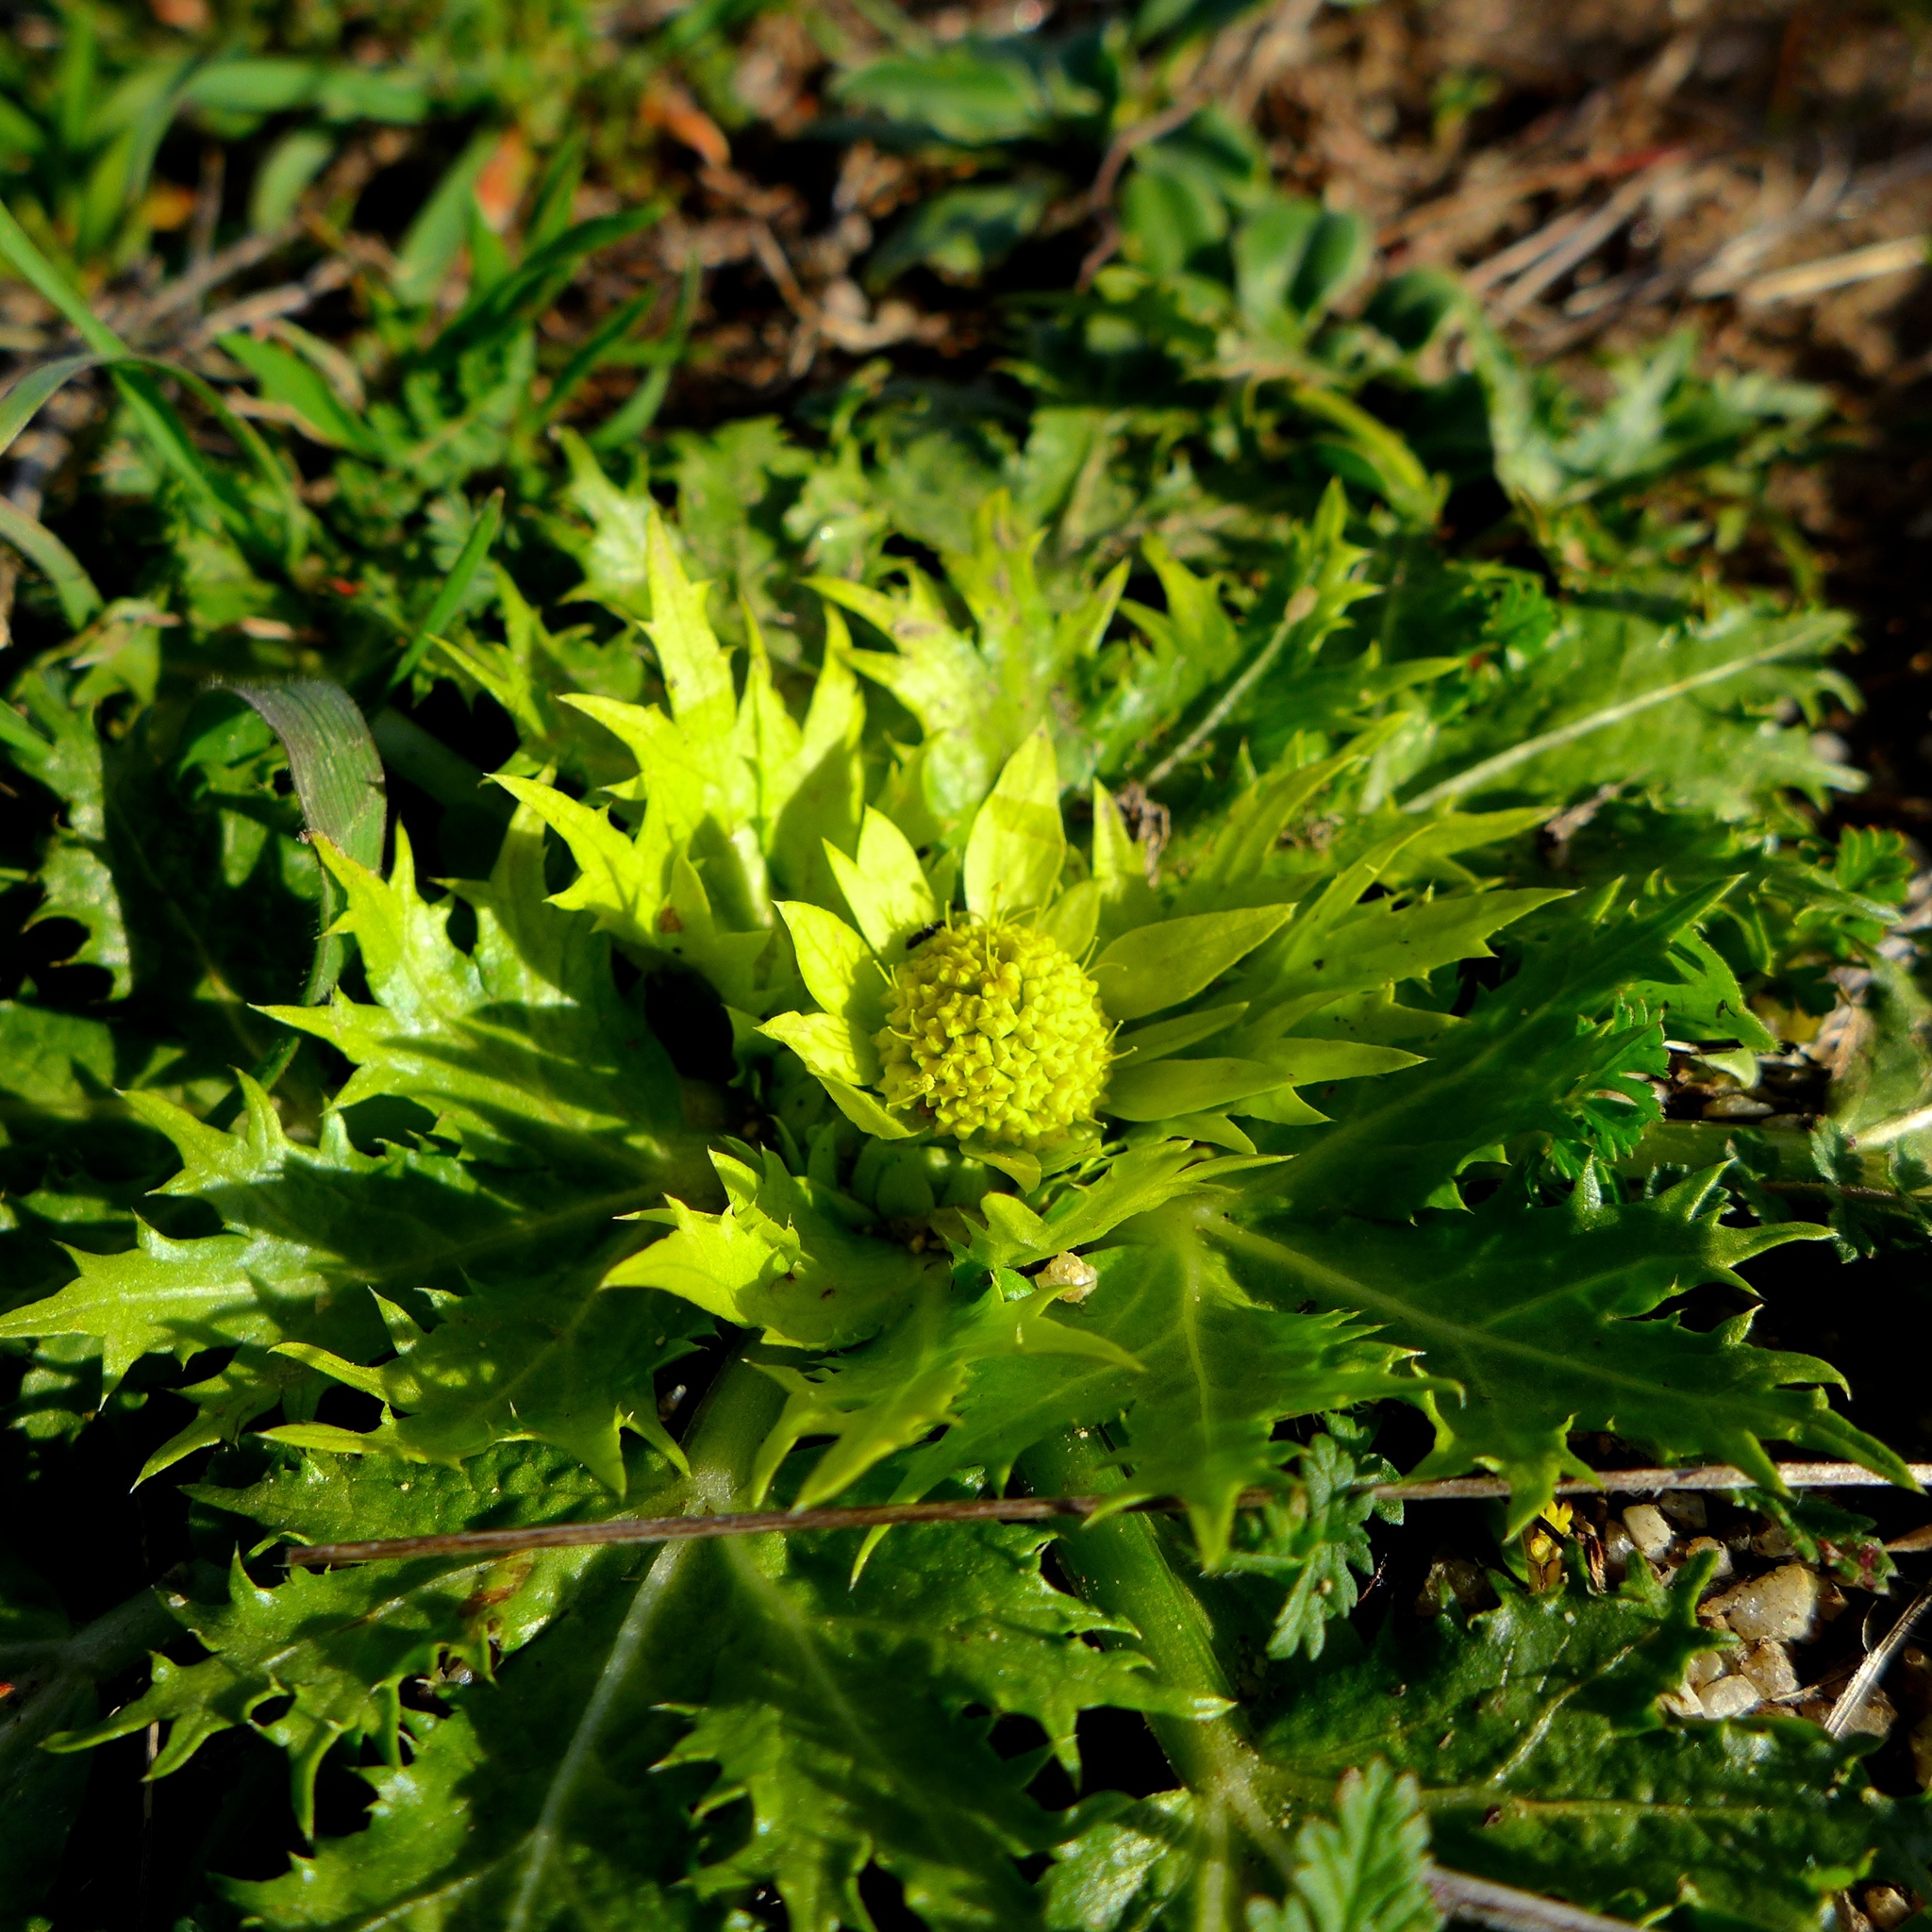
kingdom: Plantae
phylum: Tracheophyta
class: Magnoliopsida
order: Apiales
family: Apiaceae
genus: Sanicula
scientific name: Sanicula arctopoides
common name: Footsteps-of-spring
